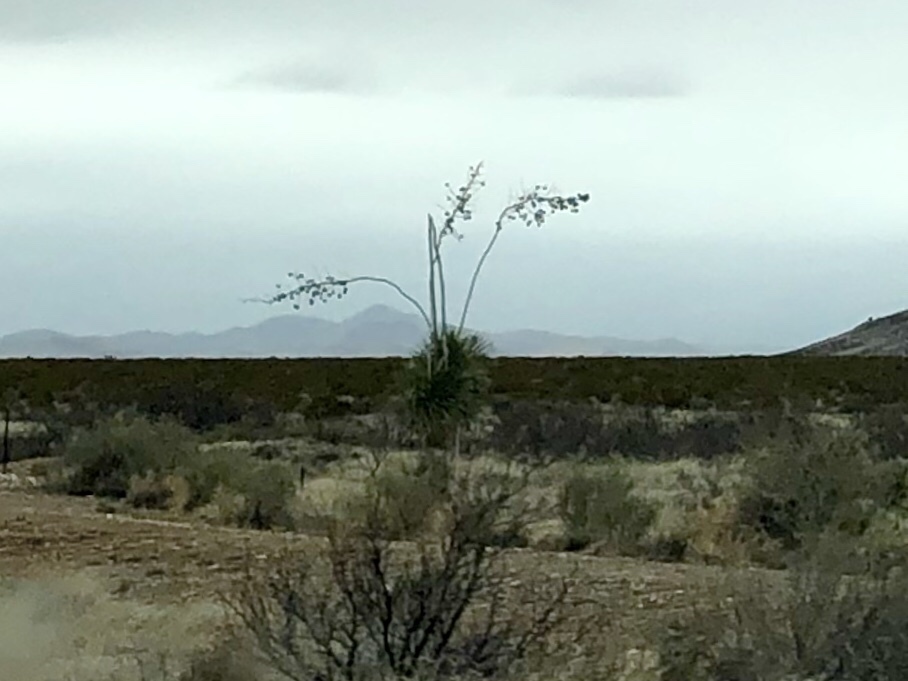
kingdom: Plantae
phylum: Tracheophyta
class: Liliopsida
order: Asparagales
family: Asparagaceae
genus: Yucca
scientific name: Yucca elata
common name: Palmella
